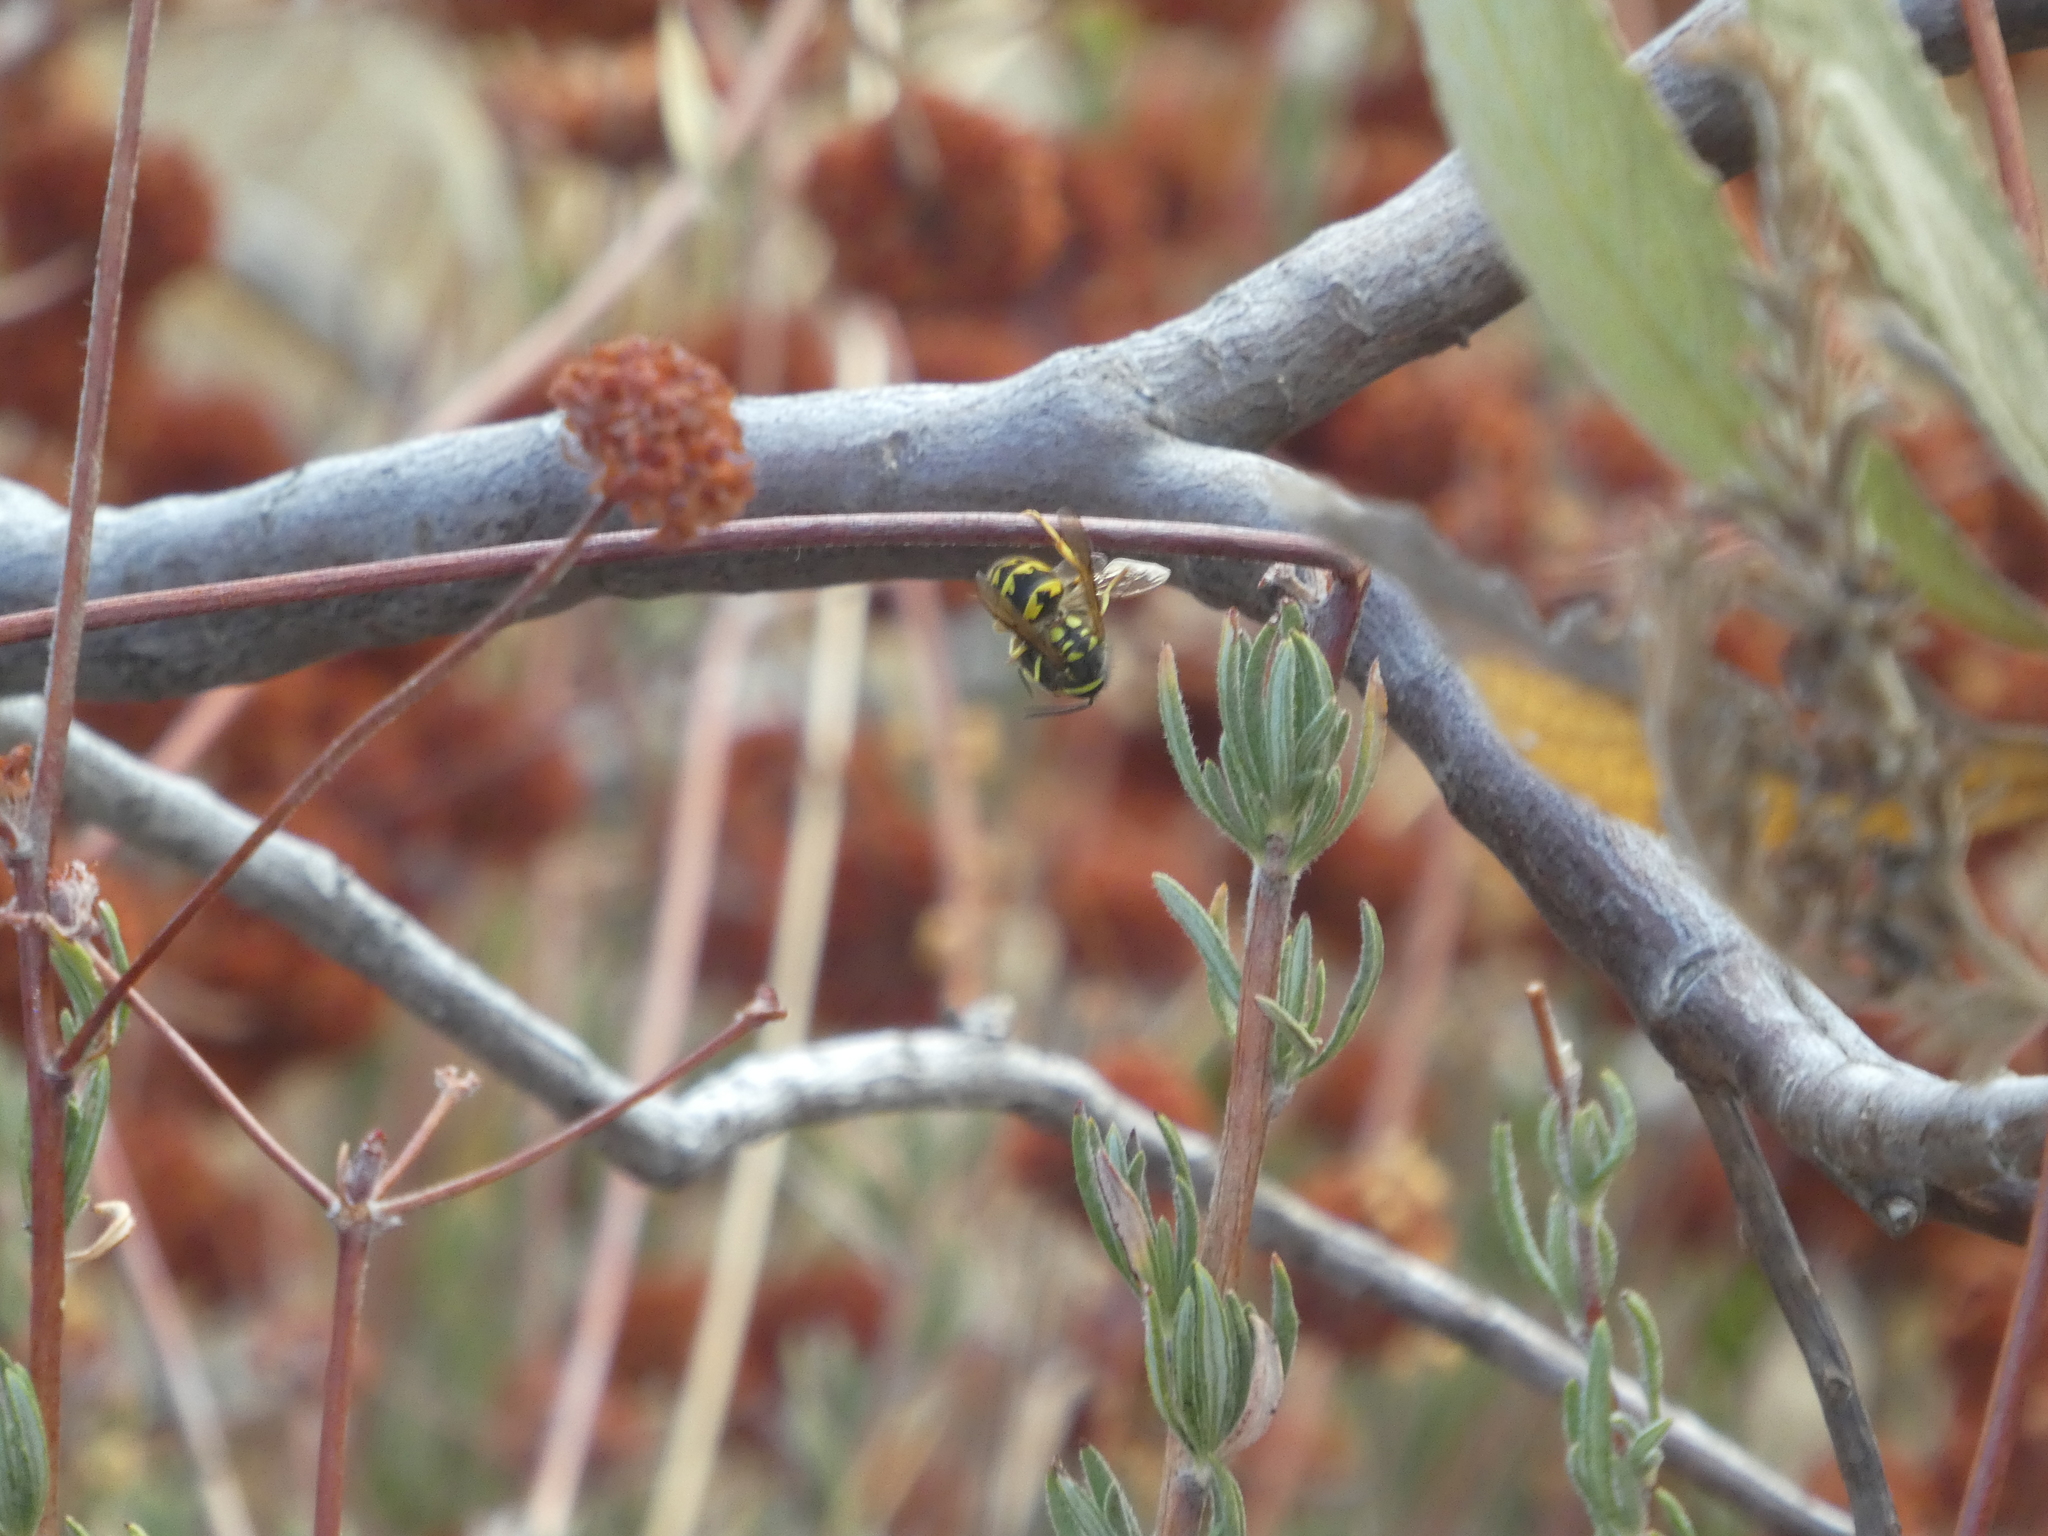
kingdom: Animalia
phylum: Arthropoda
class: Insecta
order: Hymenoptera
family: Vespidae
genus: Vespula
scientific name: Vespula pensylvanica
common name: Western yellowjacket
